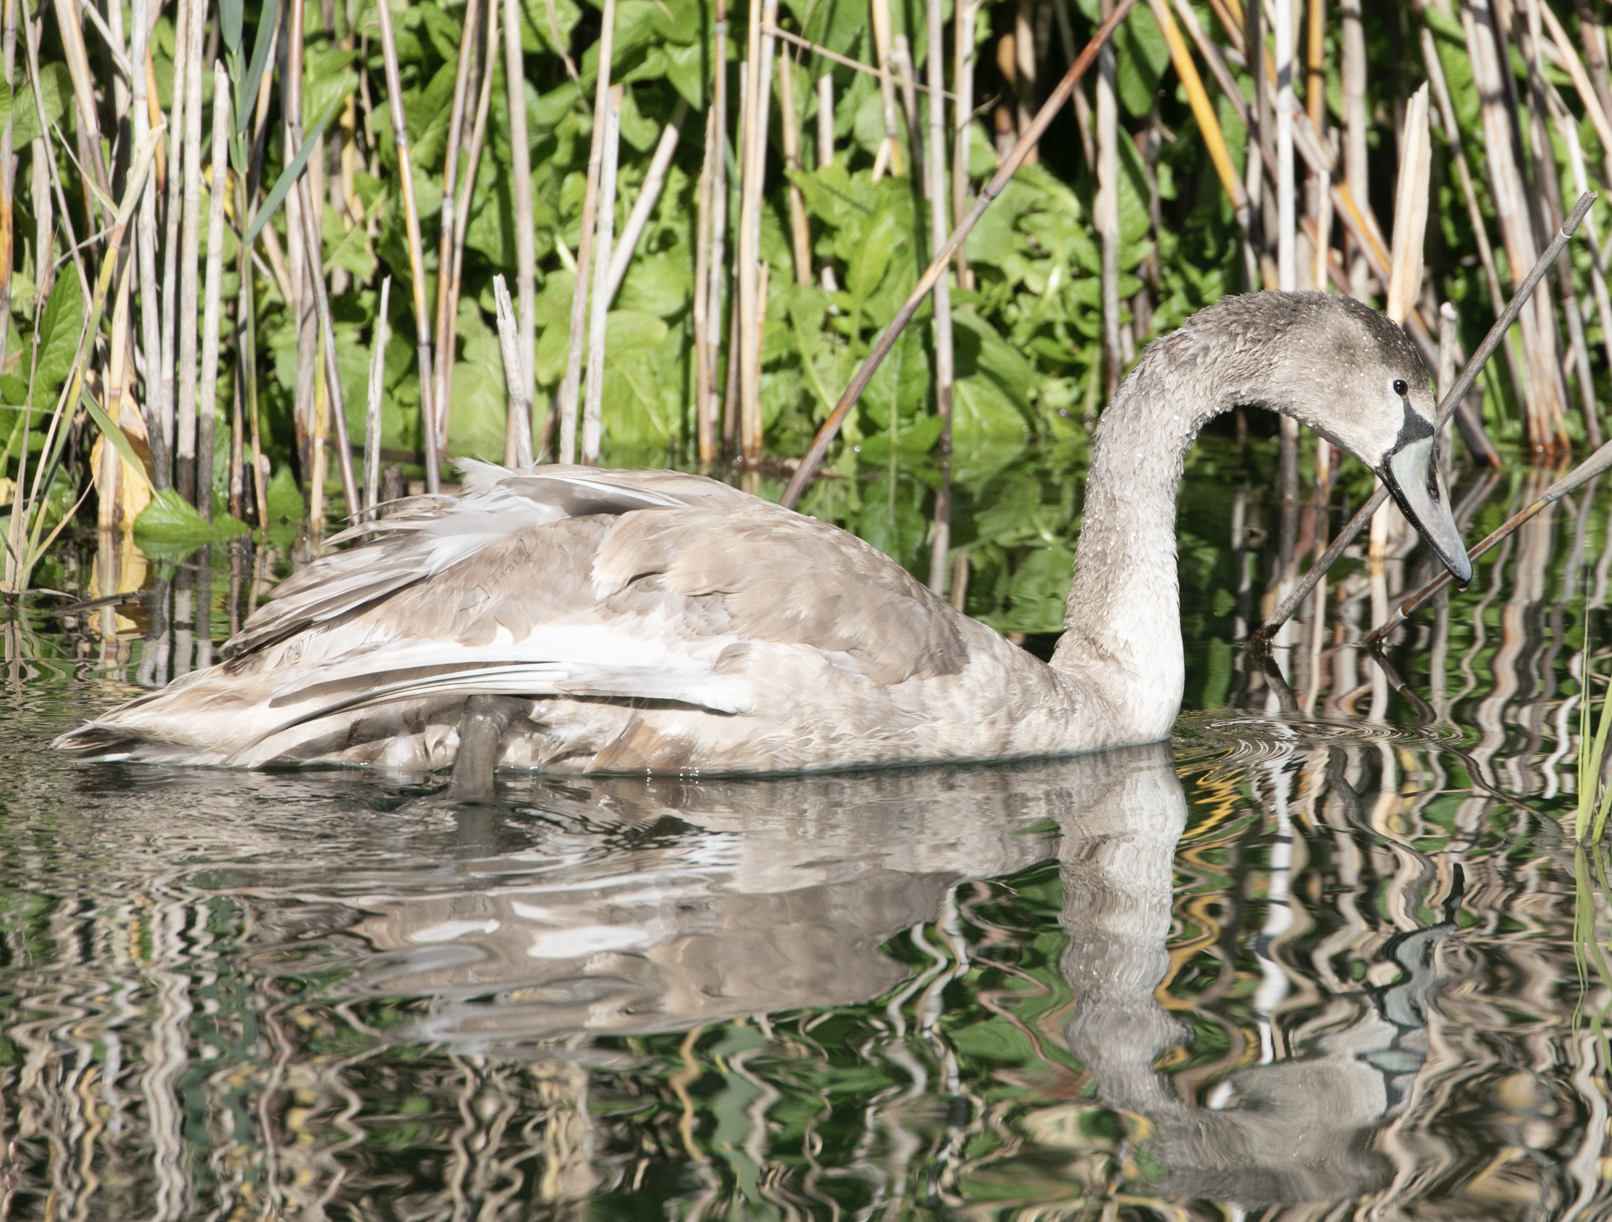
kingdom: Animalia
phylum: Chordata
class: Aves
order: Anseriformes
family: Anatidae
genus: Cygnus
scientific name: Cygnus olor
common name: Mute swan
